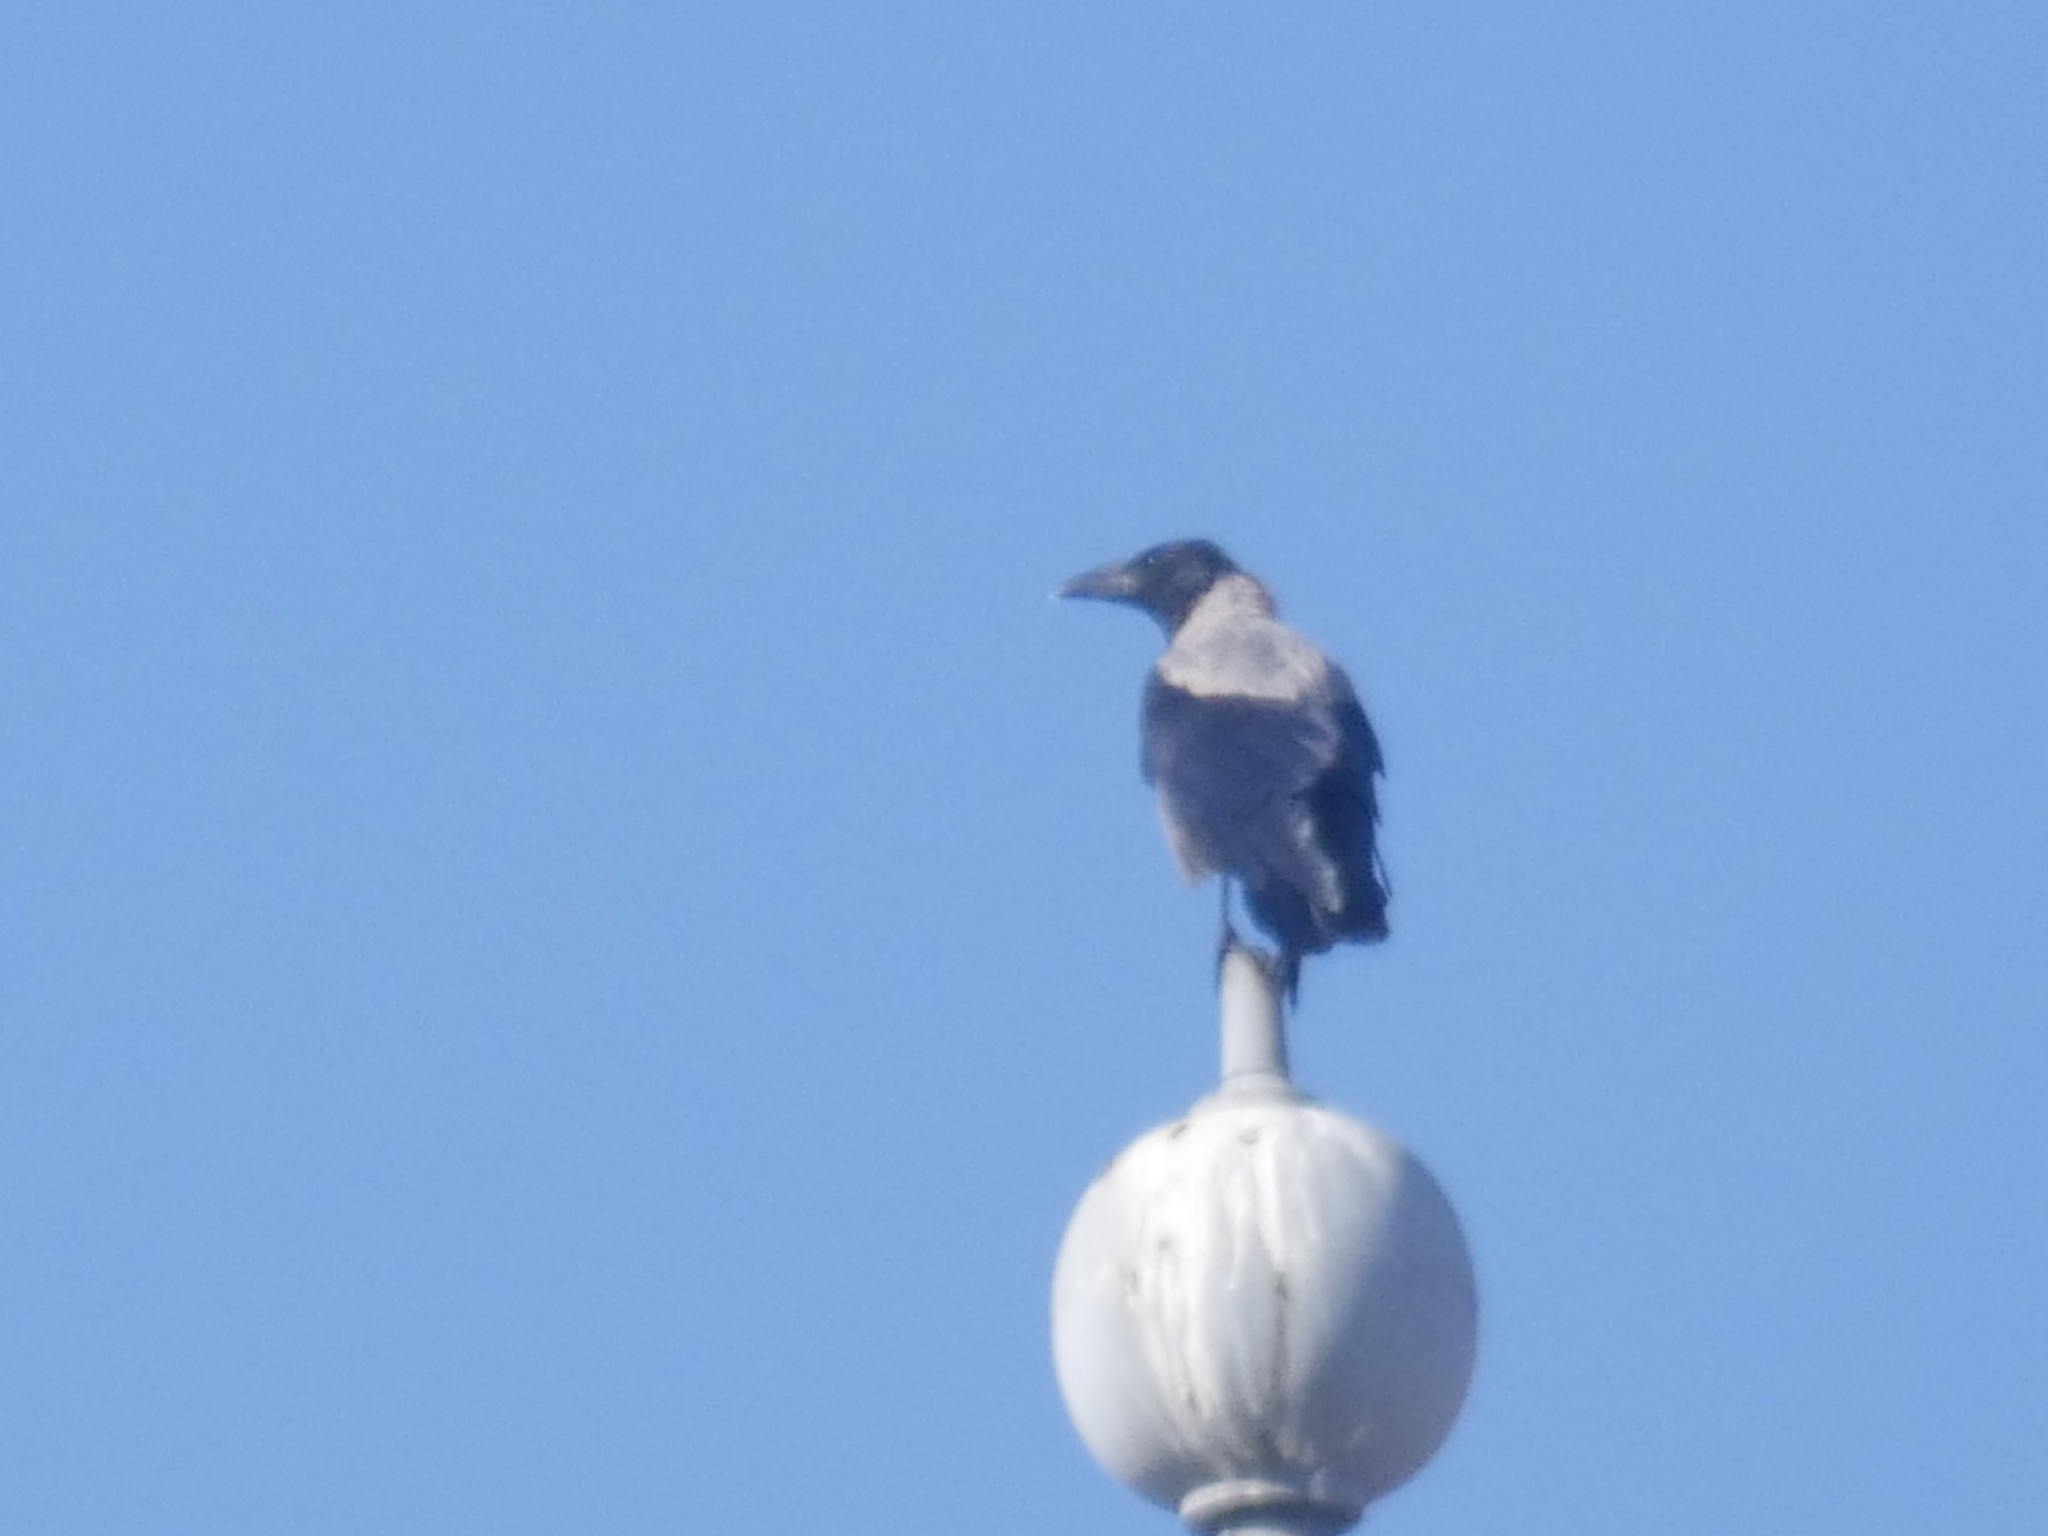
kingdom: Animalia
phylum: Chordata
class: Aves
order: Passeriformes
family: Corvidae
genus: Corvus
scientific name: Corvus cornix
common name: Hooded crow
